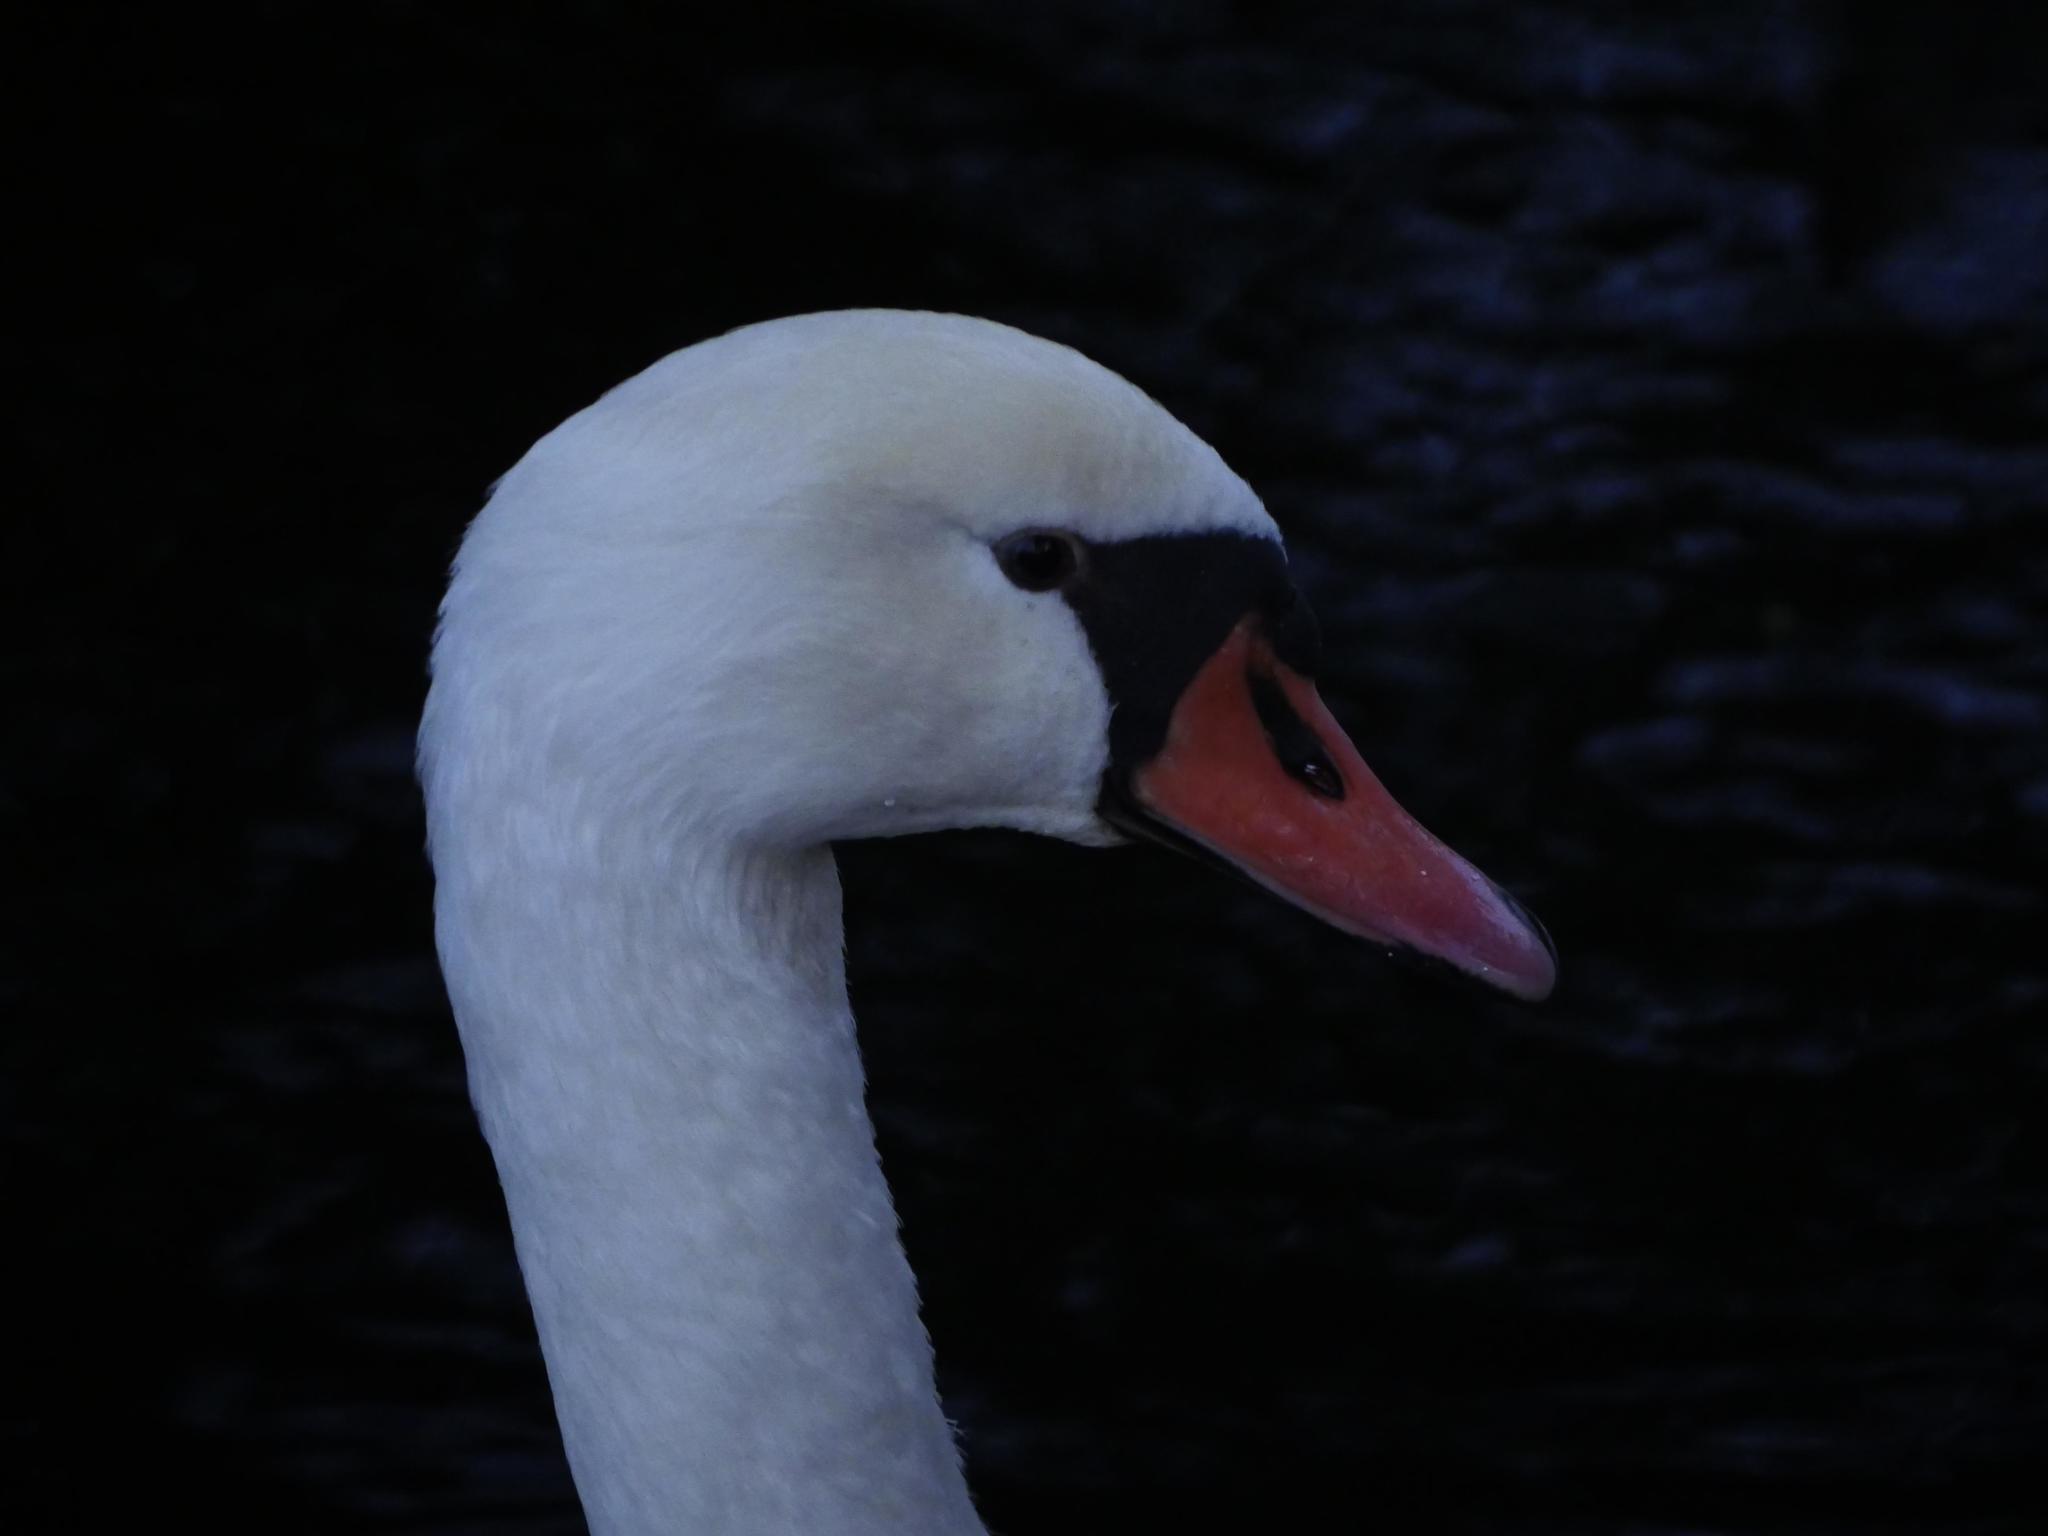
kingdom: Animalia
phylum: Chordata
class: Aves
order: Anseriformes
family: Anatidae
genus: Cygnus
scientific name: Cygnus olor
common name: Mute swan
